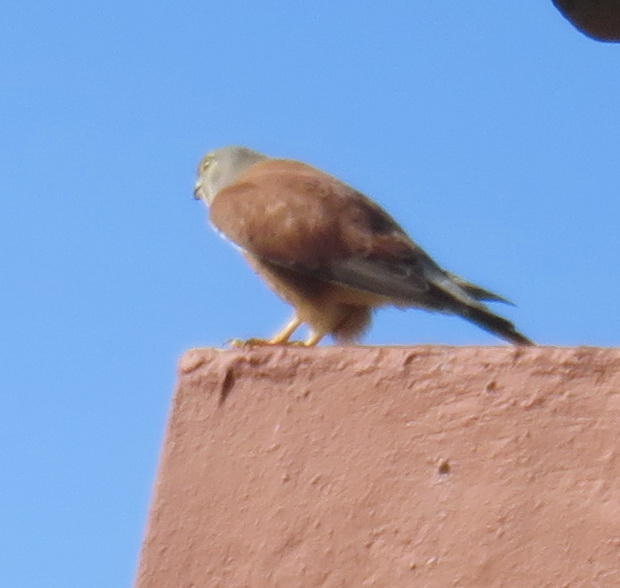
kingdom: Animalia
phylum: Chordata
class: Aves
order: Falconiformes
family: Falconidae
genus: Falco
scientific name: Falco rupicolus
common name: Rock kestrel
